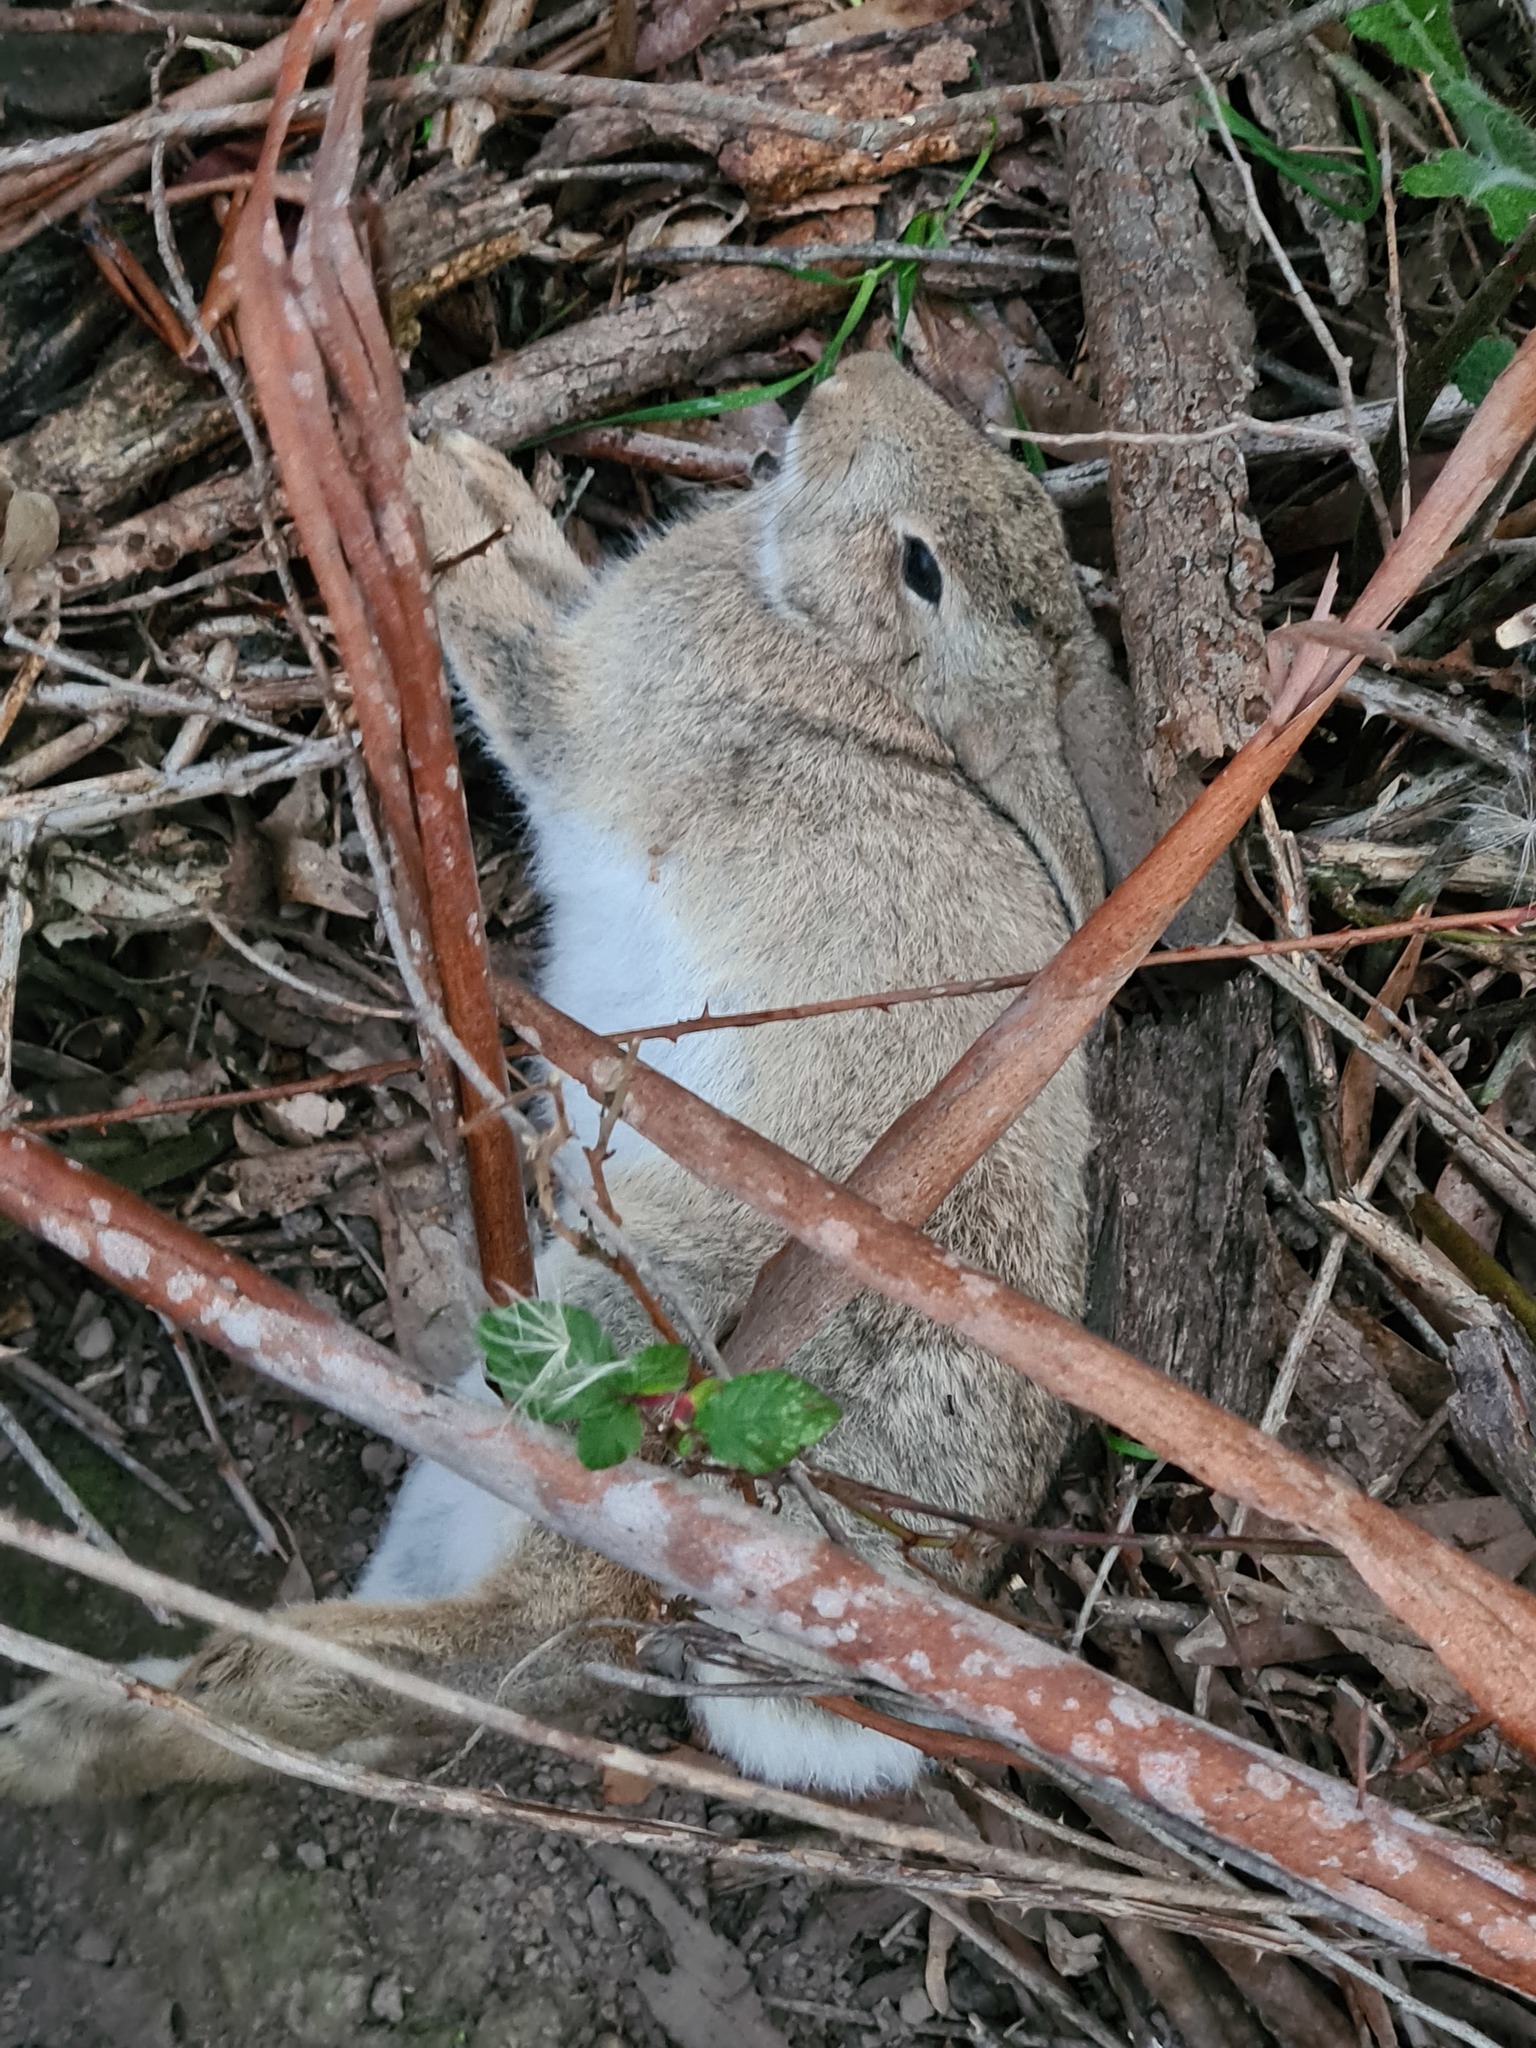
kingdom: Animalia
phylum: Chordata
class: Mammalia
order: Lagomorpha
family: Leporidae
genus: Oryctolagus
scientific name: Oryctolagus cuniculus
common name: European rabbit
